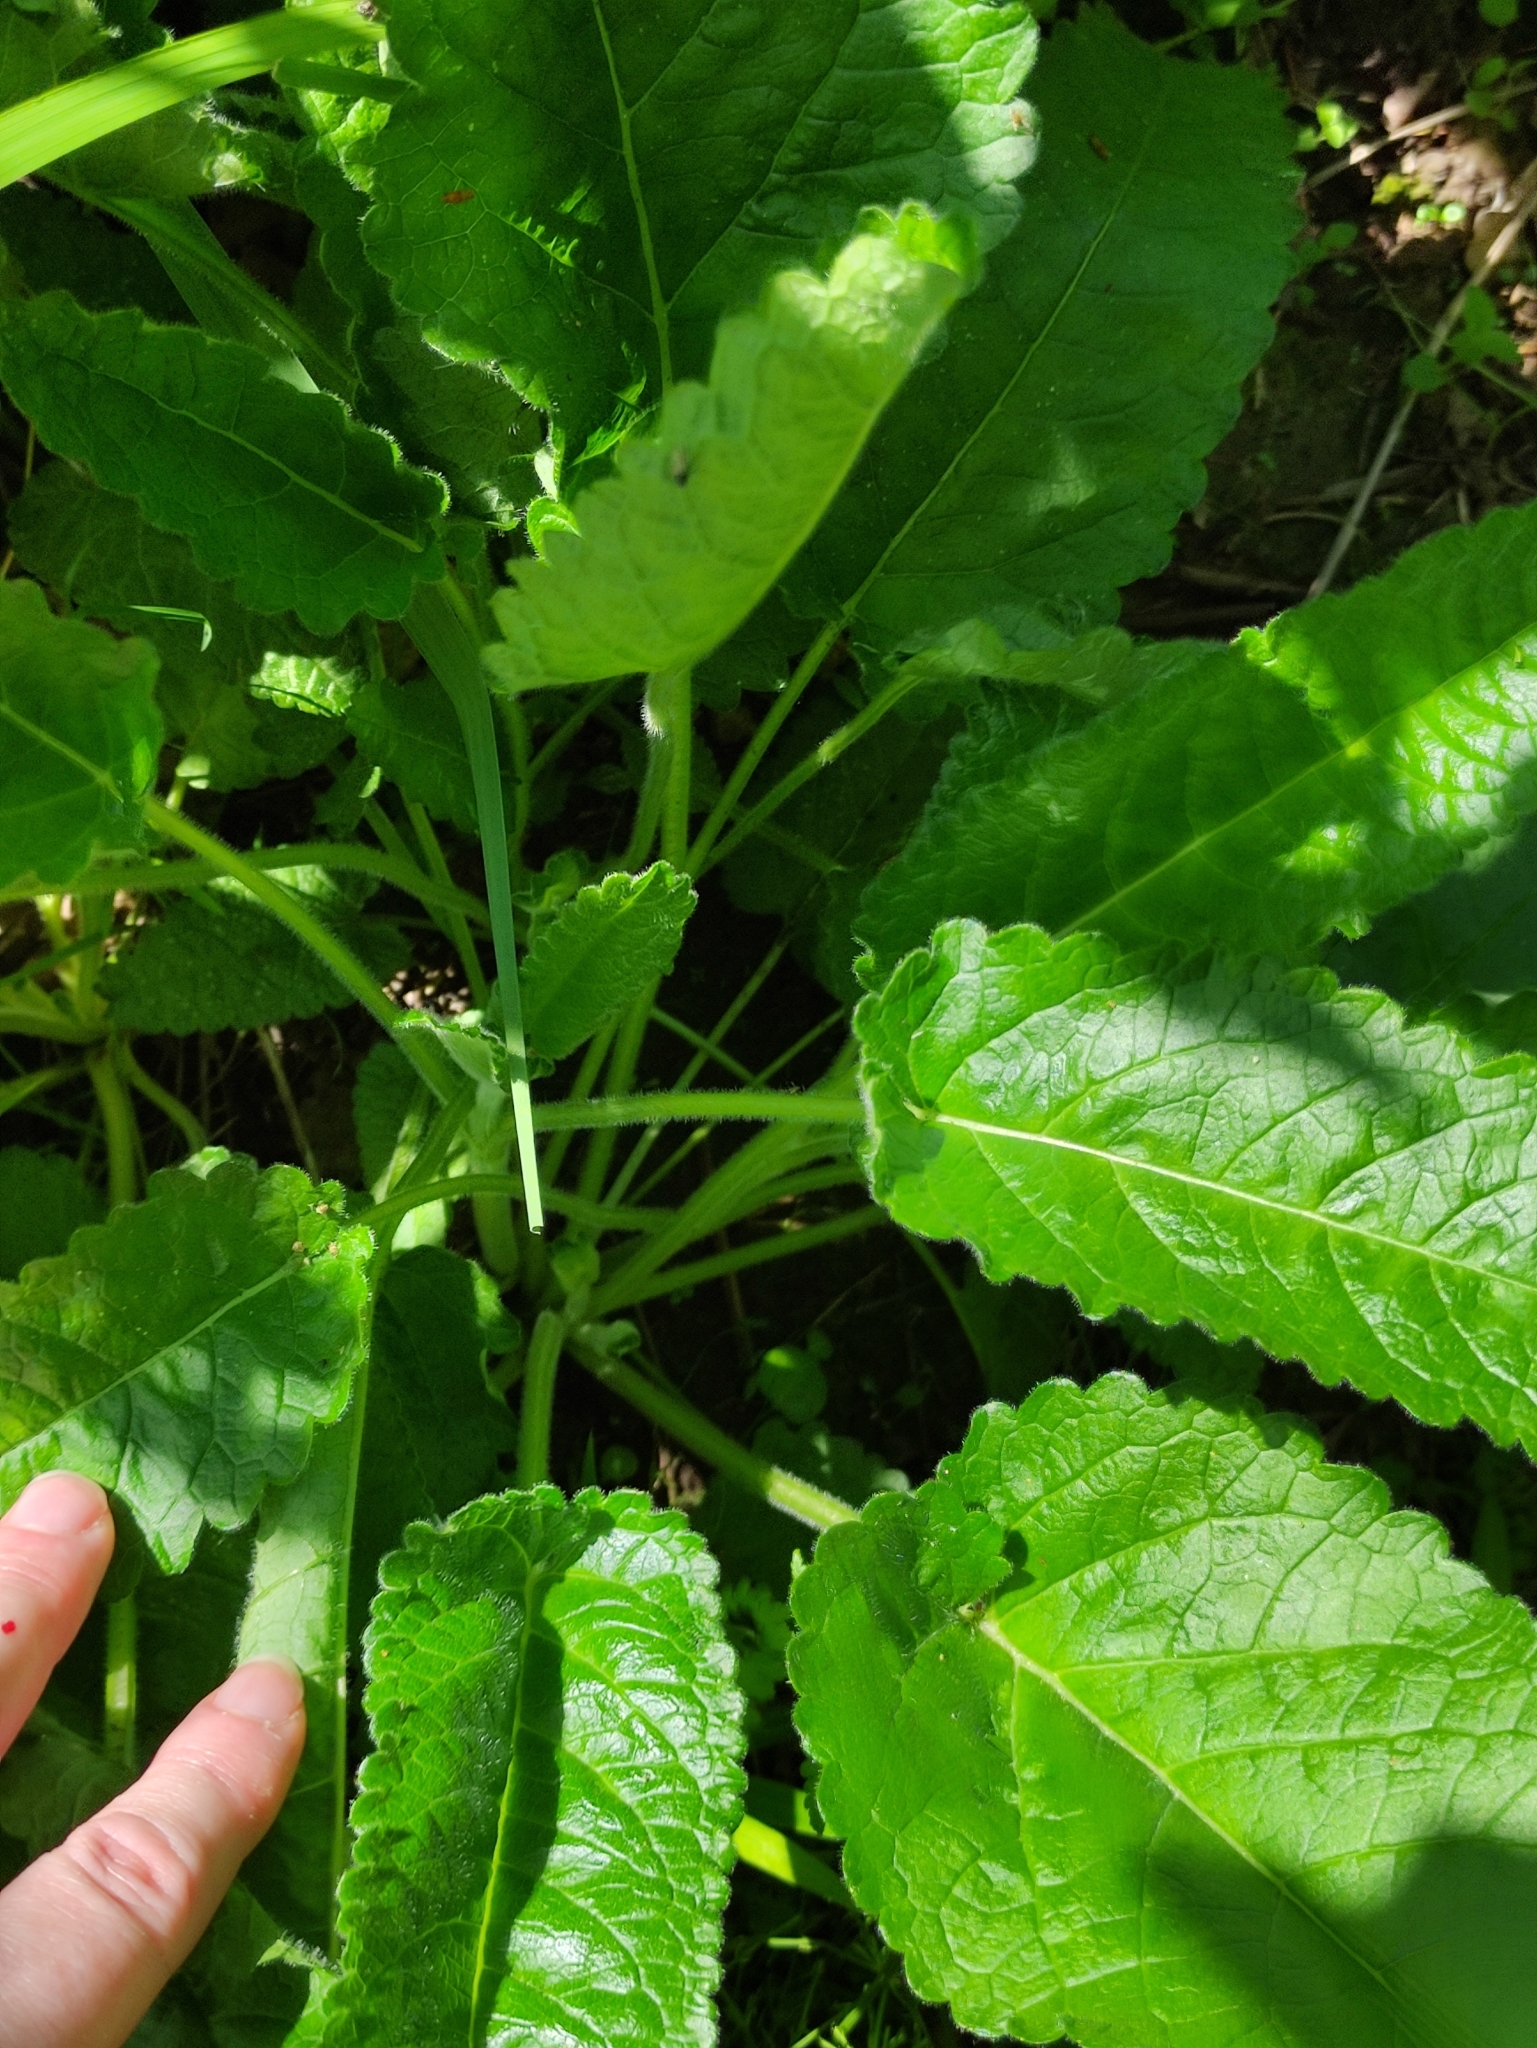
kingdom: Plantae
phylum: Tracheophyta
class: Magnoliopsida
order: Lamiales
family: Lamiaceae
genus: Betonica
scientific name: Betonica officinalis
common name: Bishop's-wort
